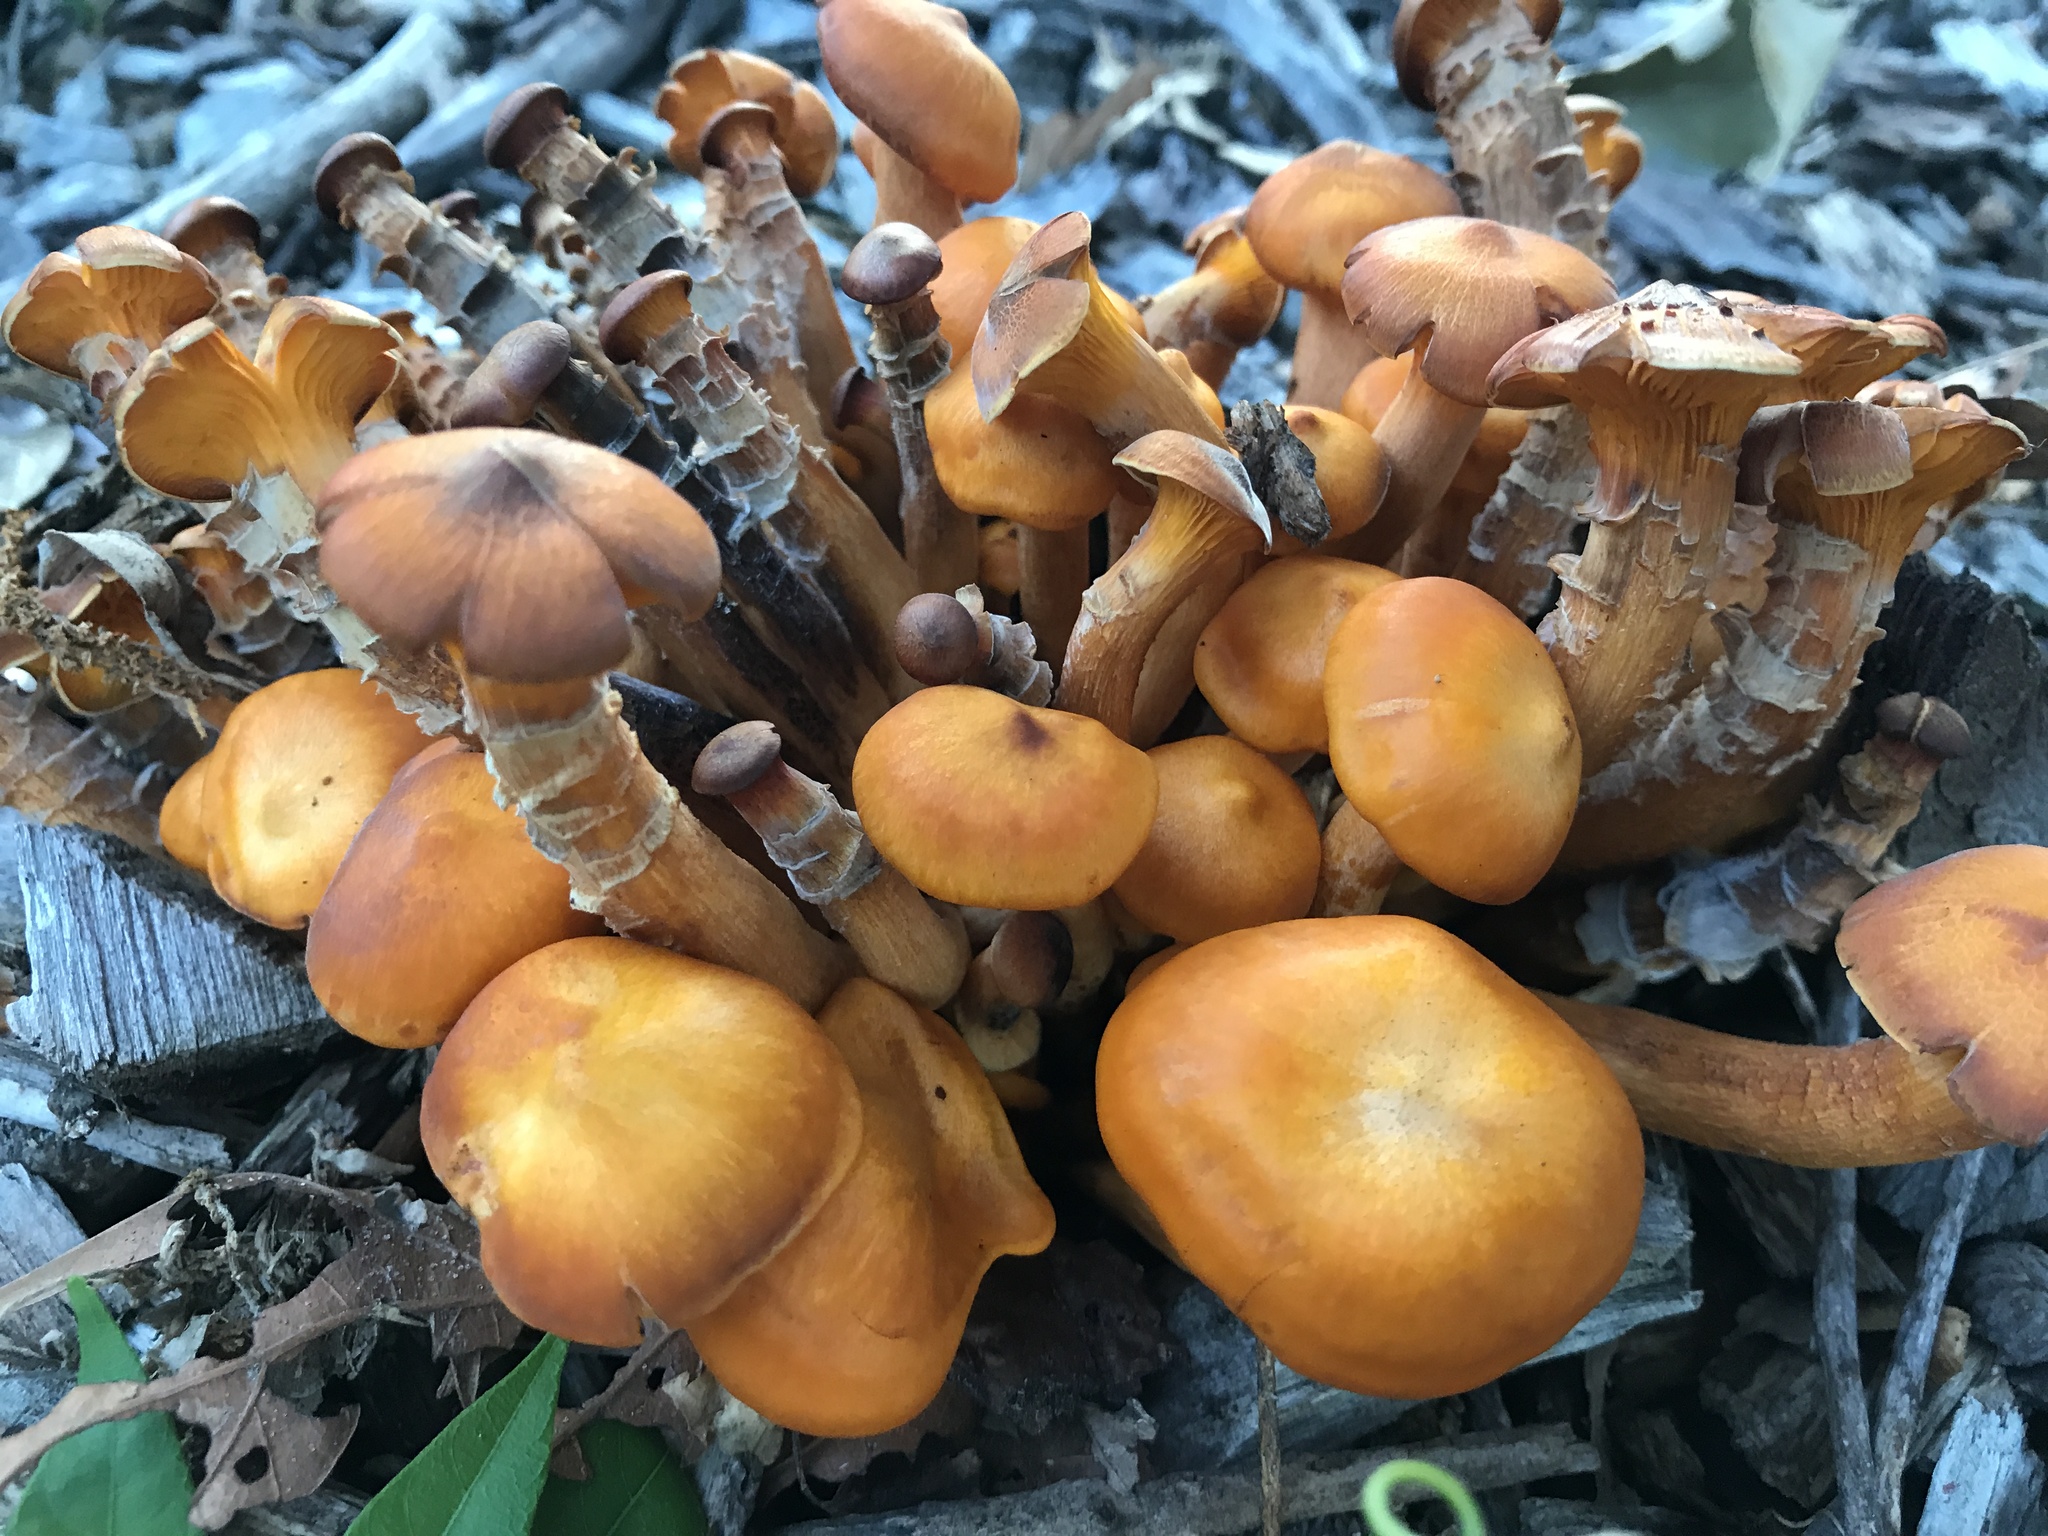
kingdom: Fungi
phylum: Basidiomycota
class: Agaricomycetes
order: Agaricales
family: Omphalotaceae
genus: Omphalotus
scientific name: Omphalotus illudens
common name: Jack o lantern
